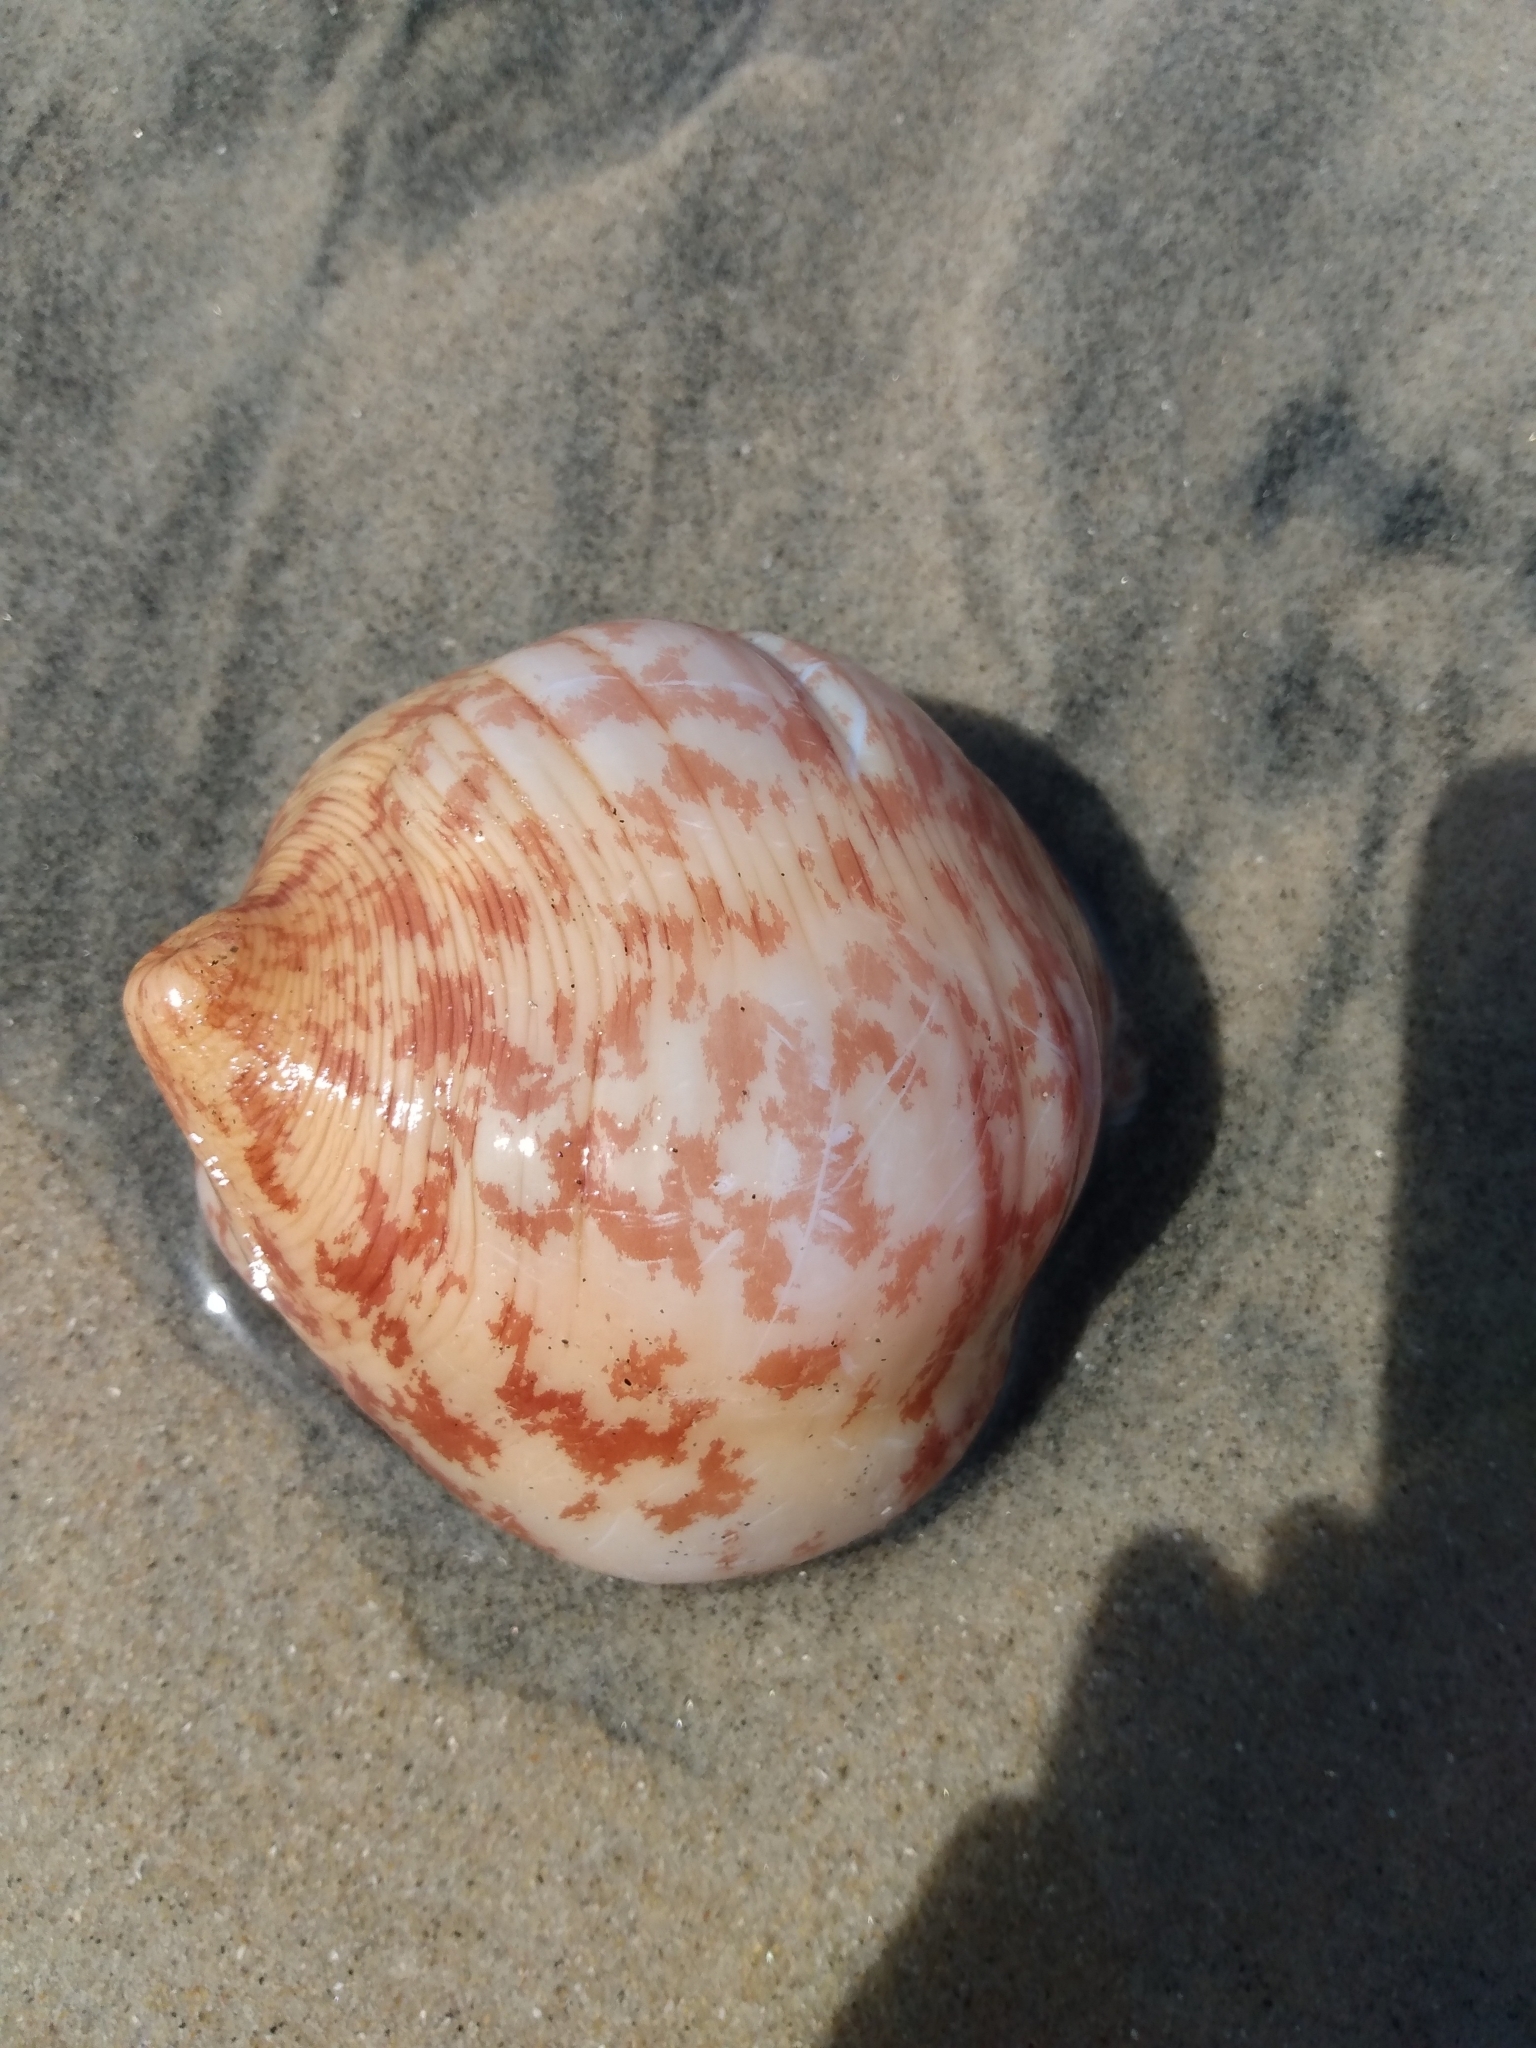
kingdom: Animalia
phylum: Echinodermata
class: Holothuroidea
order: Molpadida
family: Caudinidae
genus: Caudina
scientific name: Caudina arenicola
